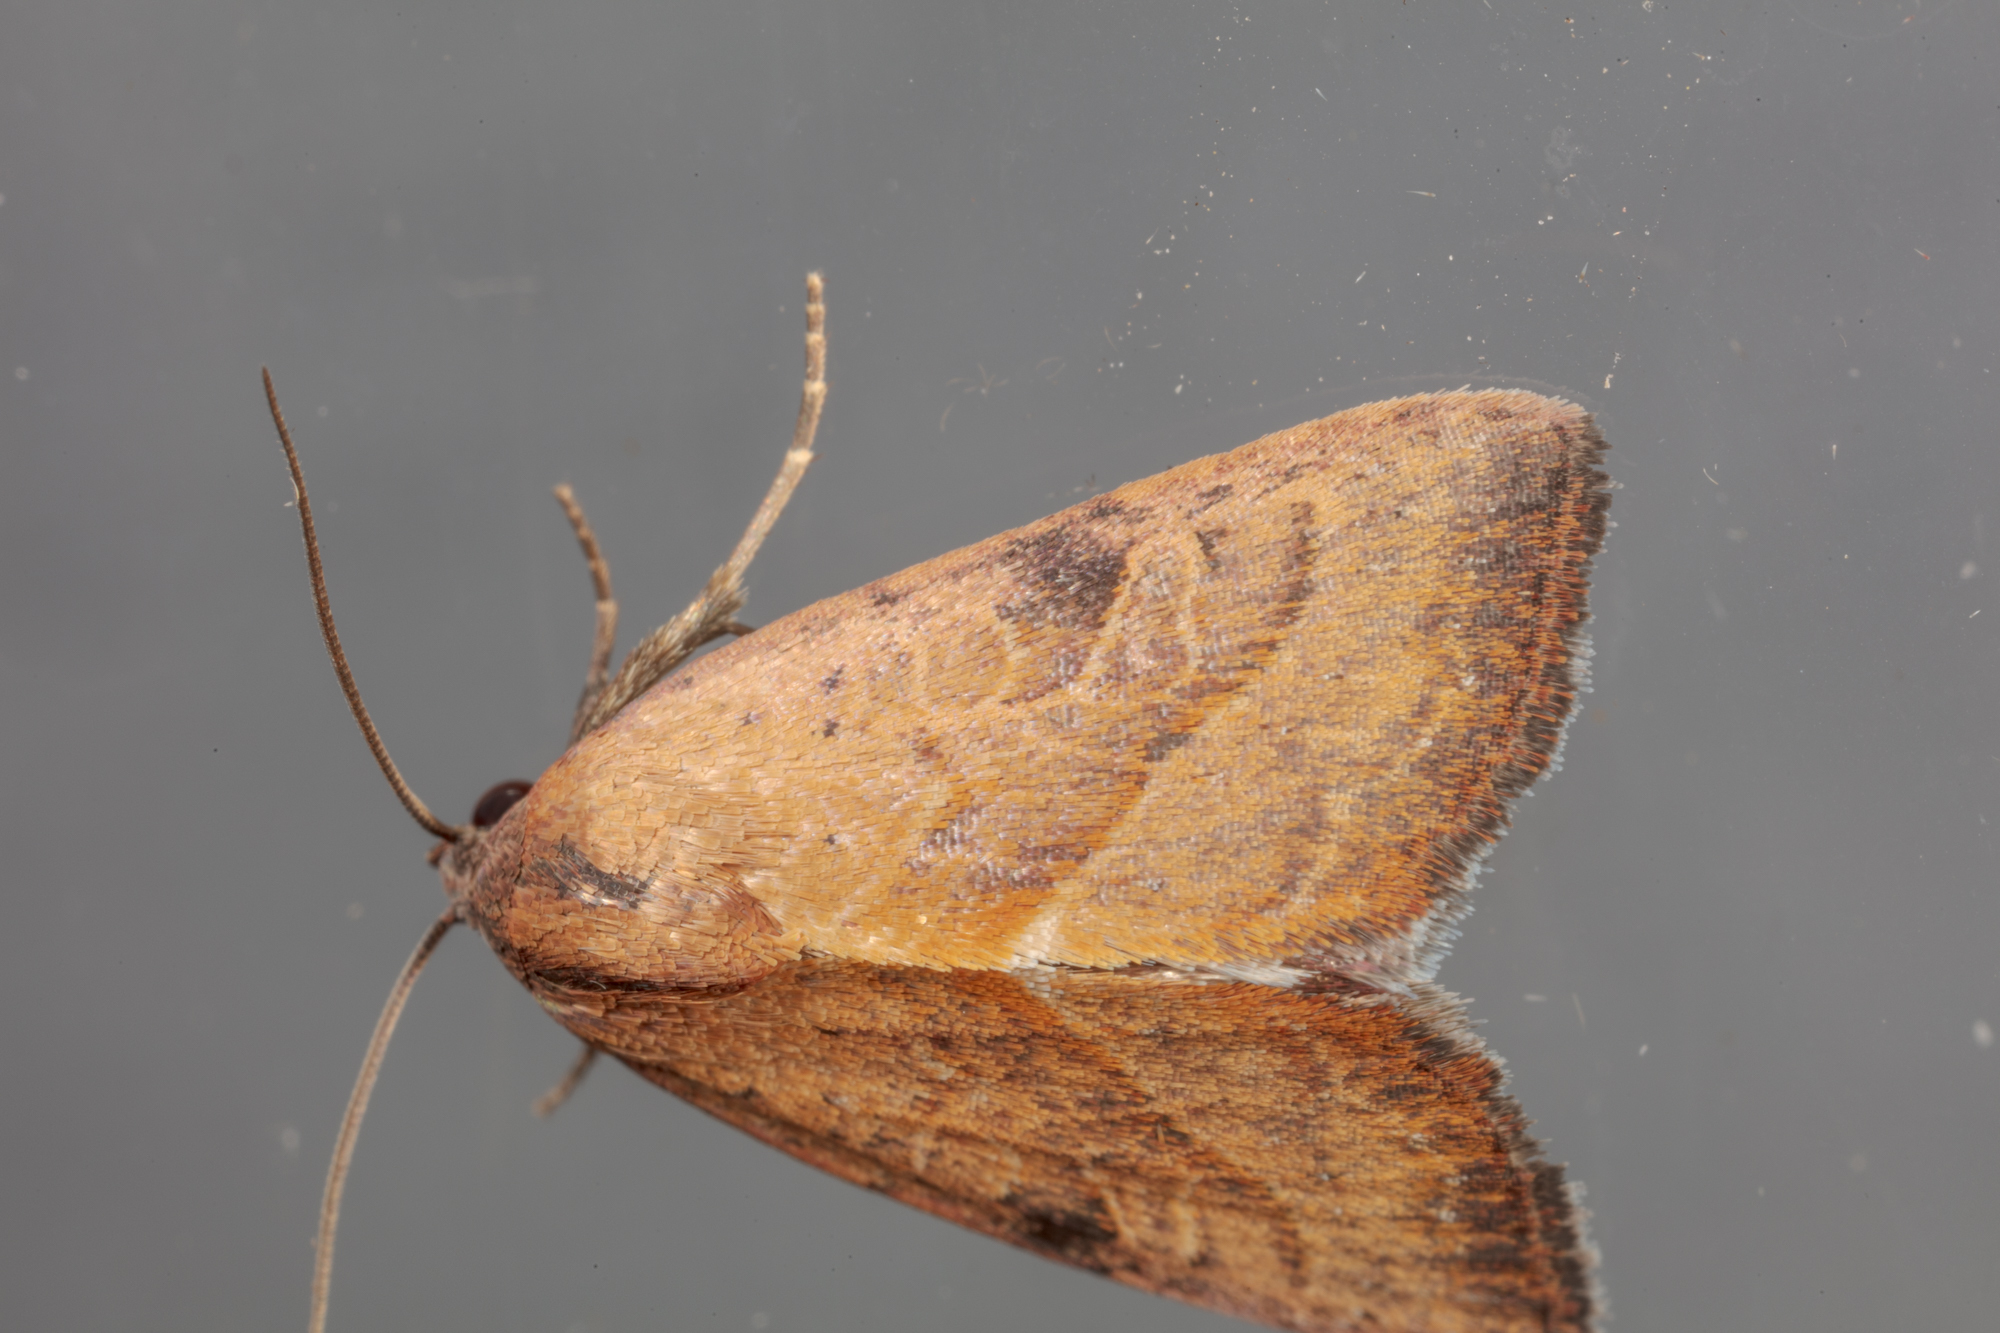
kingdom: Animalia
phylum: Arthropoda
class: Insecta
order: Lepidoptera
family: Noctuidae
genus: Galgula
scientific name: Galgula partita
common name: Wedgeling
